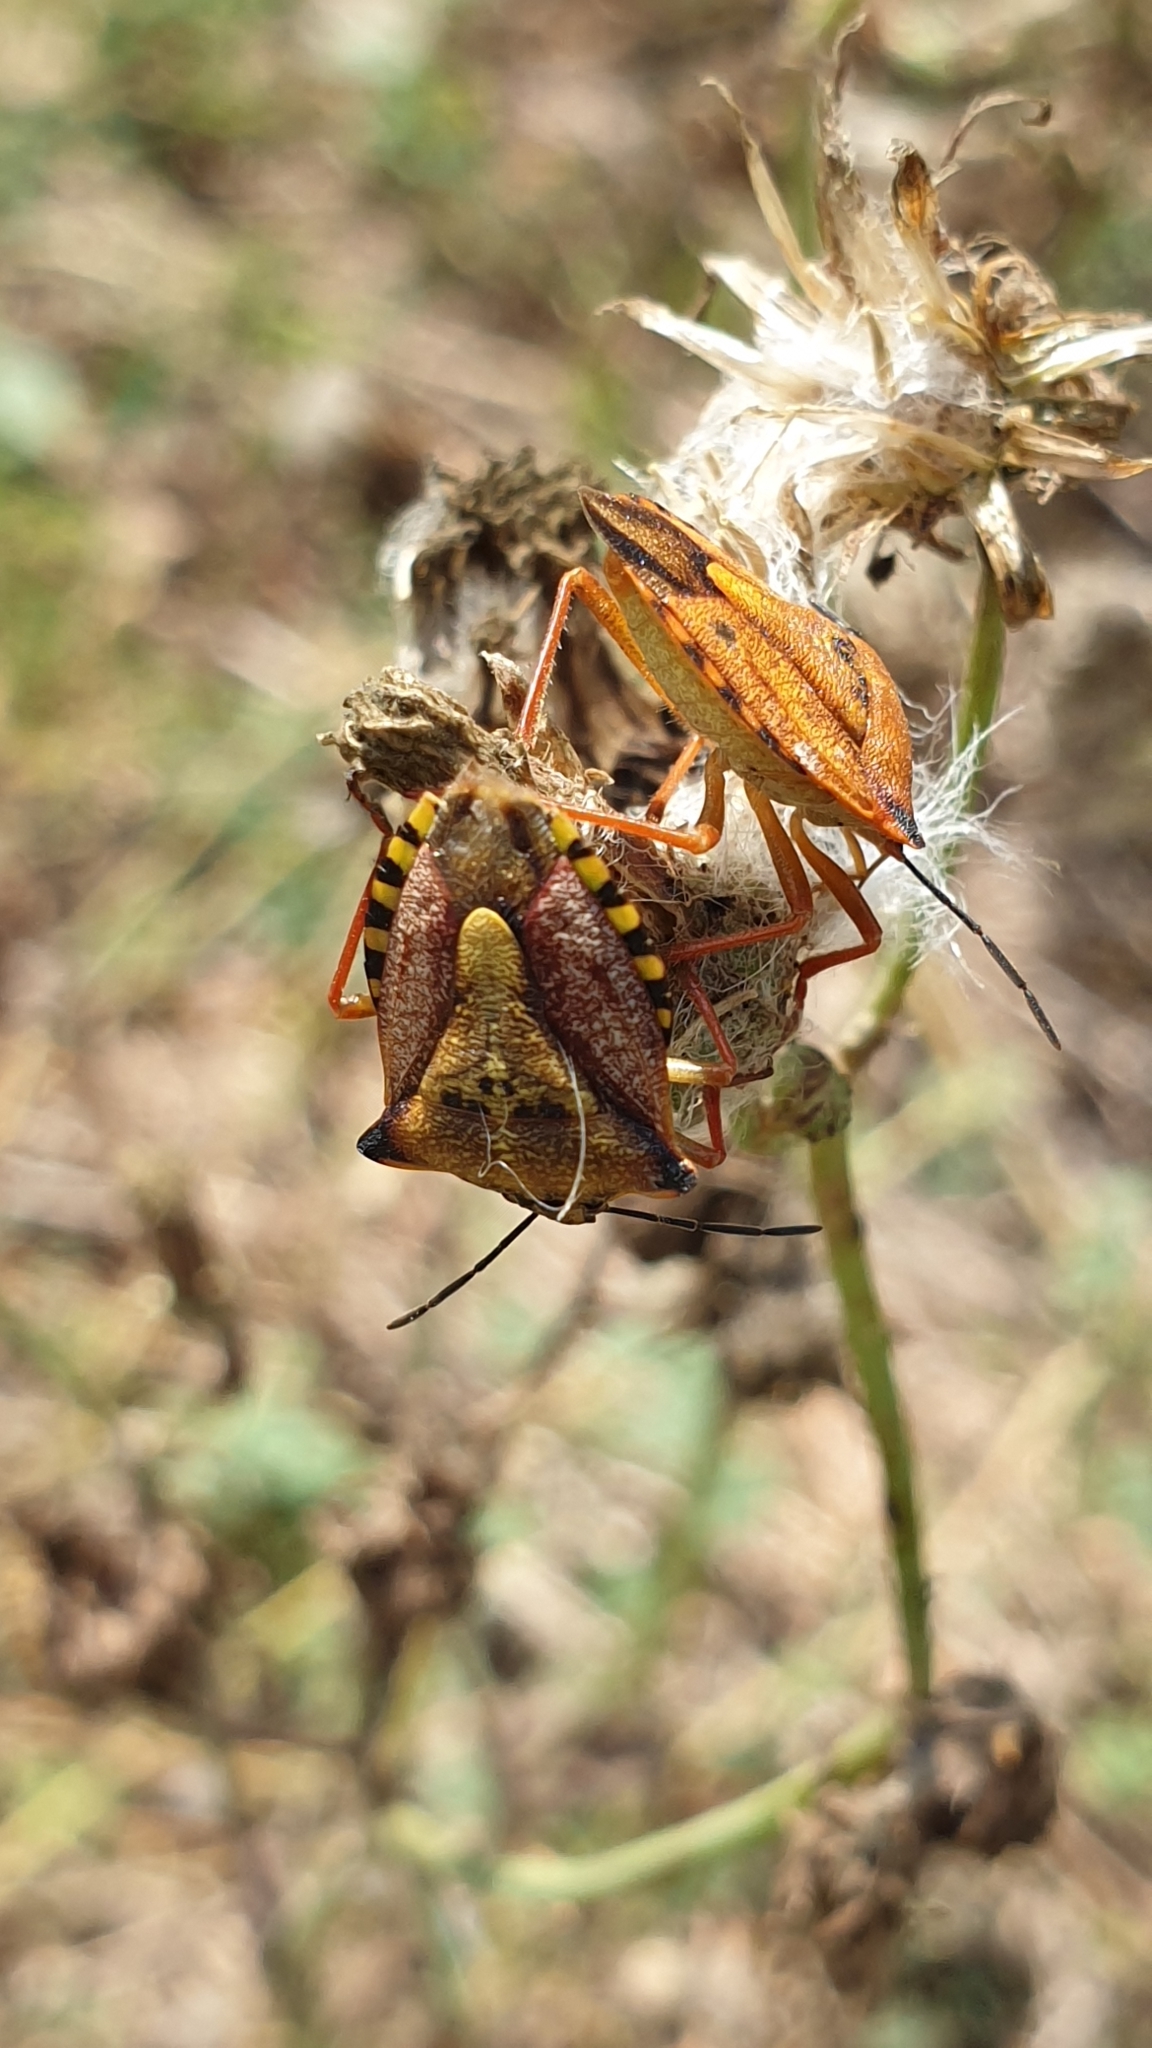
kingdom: Animalia
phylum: Arthropoda
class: Insecta
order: Hemiptera
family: Pentatomidae
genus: Carpocoris
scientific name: Carpocoris mediterraneus
